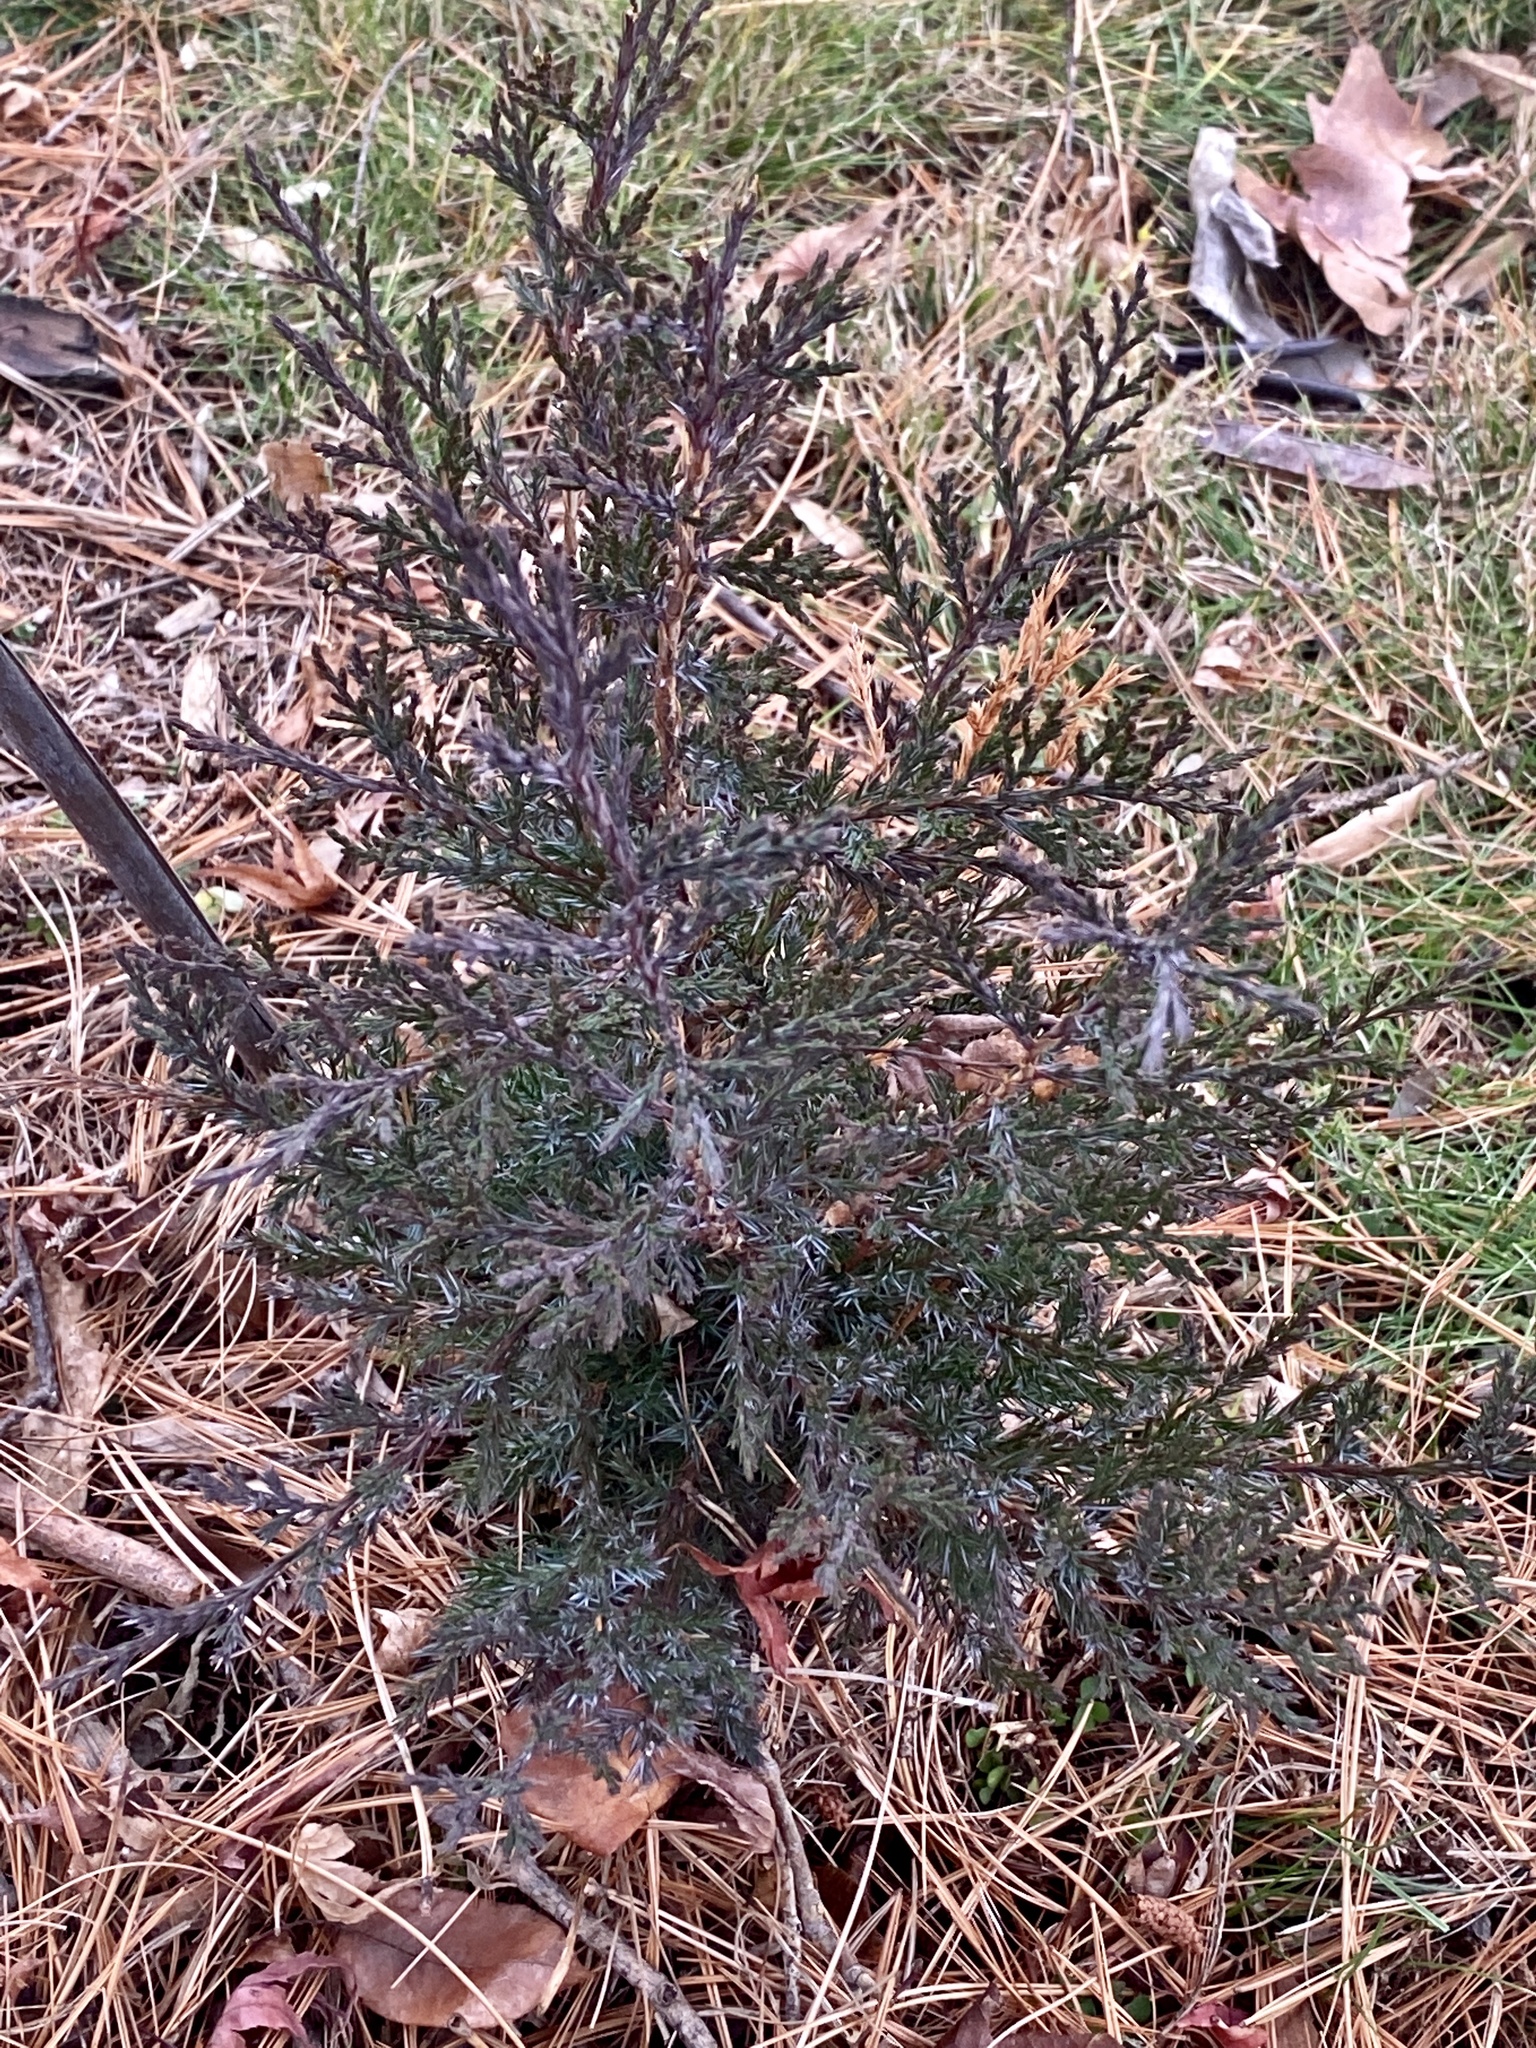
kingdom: Plantae
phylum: Tracheophyta
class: Pinopsida
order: Pinales
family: Cupressaceae
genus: Juniperus
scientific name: Juniperus virginiana
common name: Red juniper
